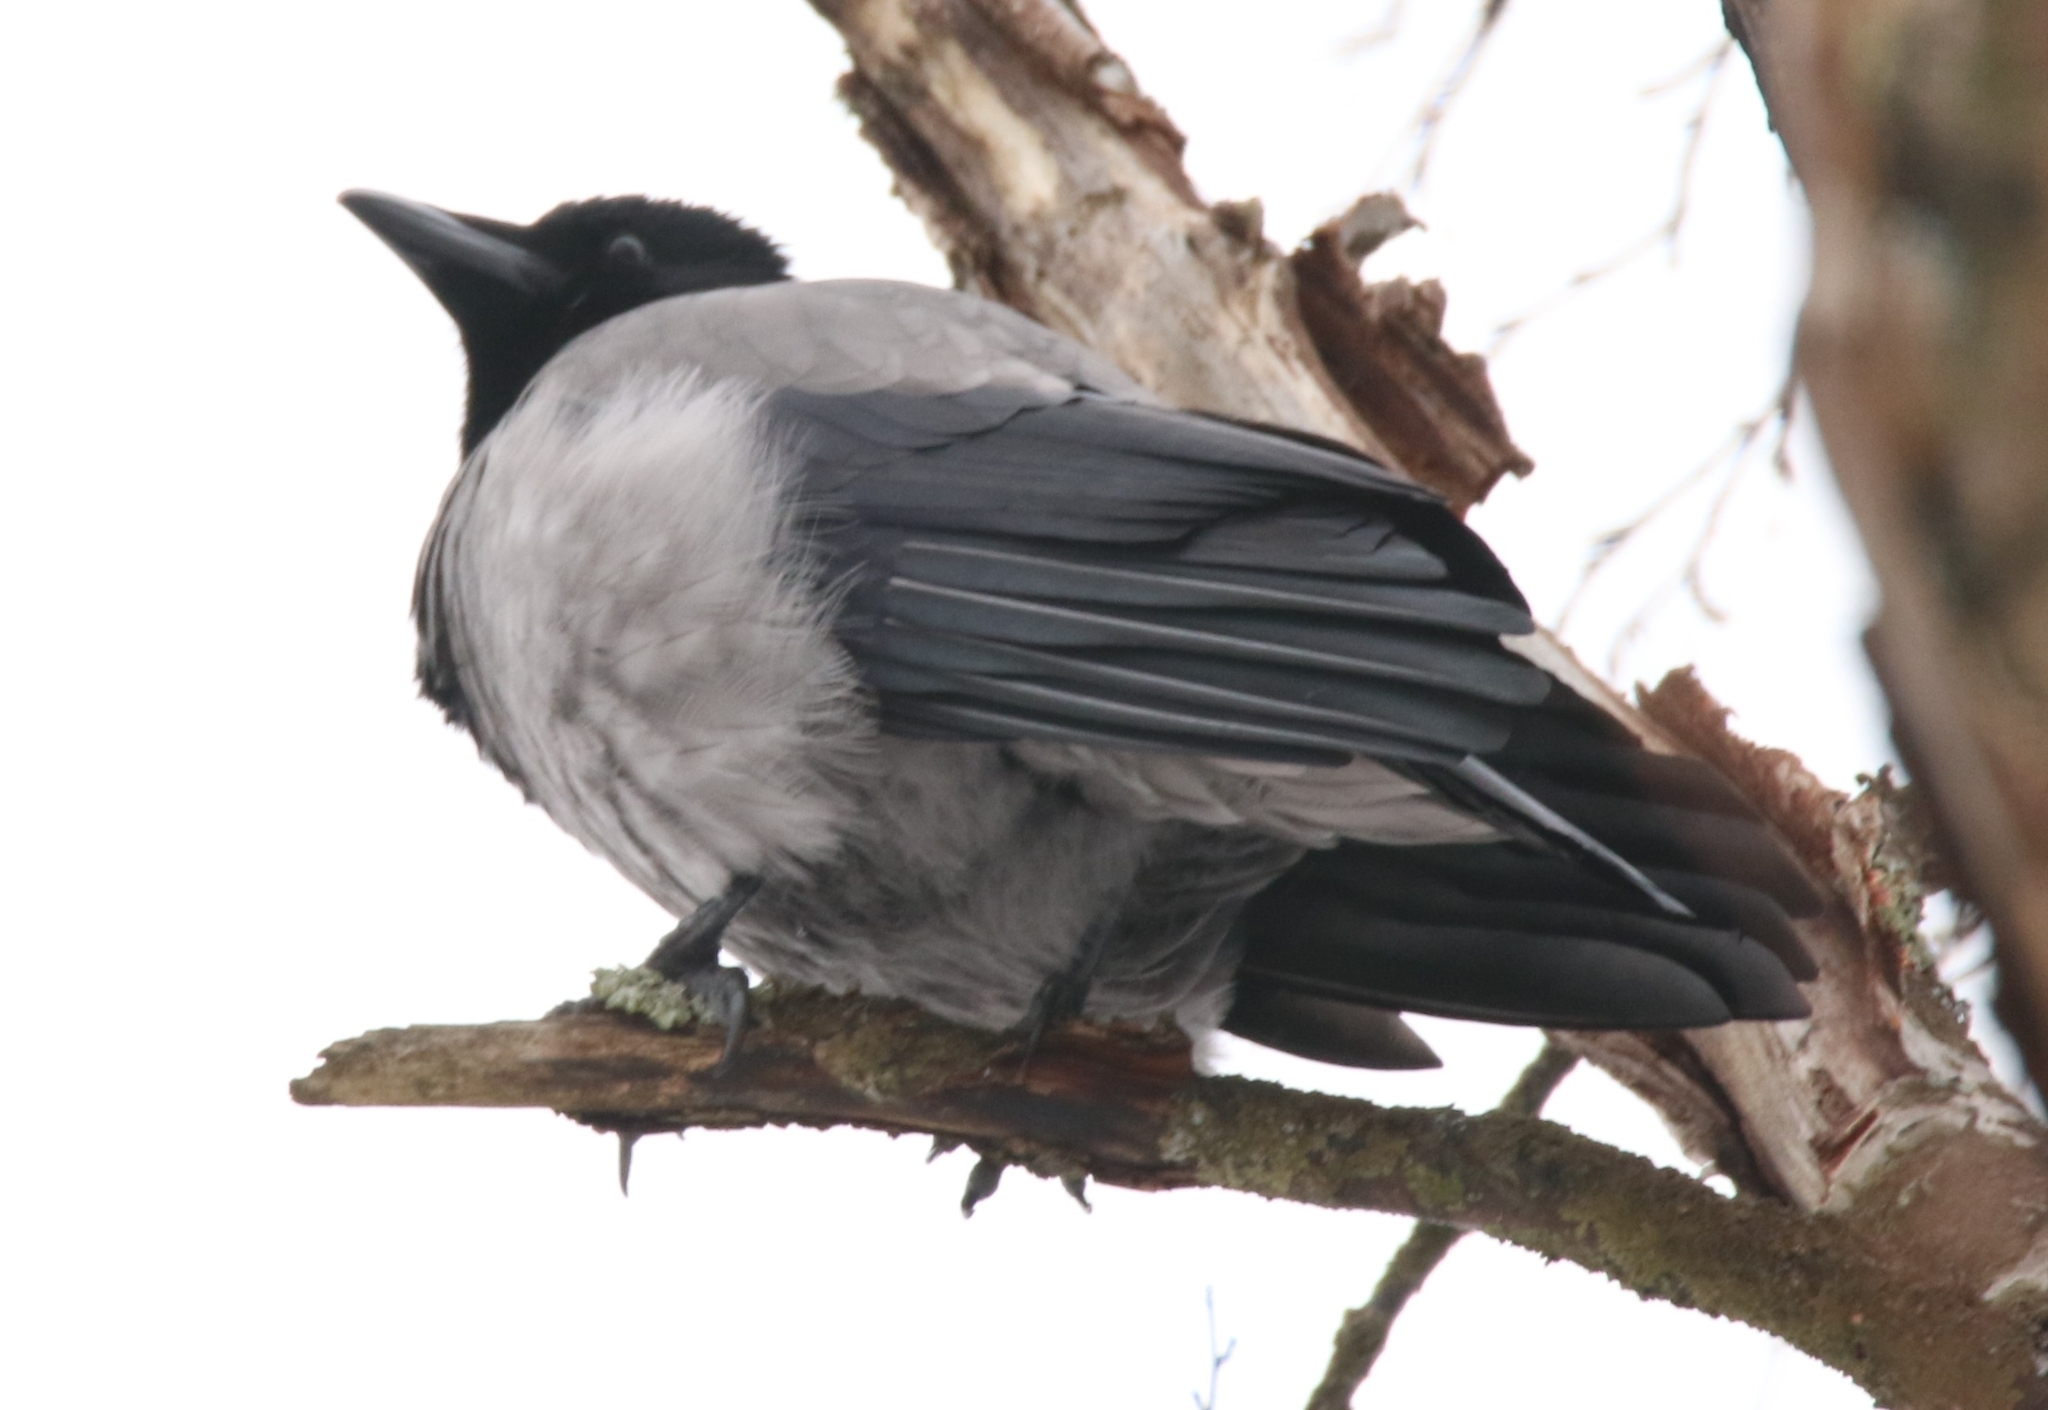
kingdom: Animalia
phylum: Chordata
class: Aves
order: Passeriformes
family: Corvidae
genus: Corvus
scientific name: Corvus cornix
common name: Hooded crow
